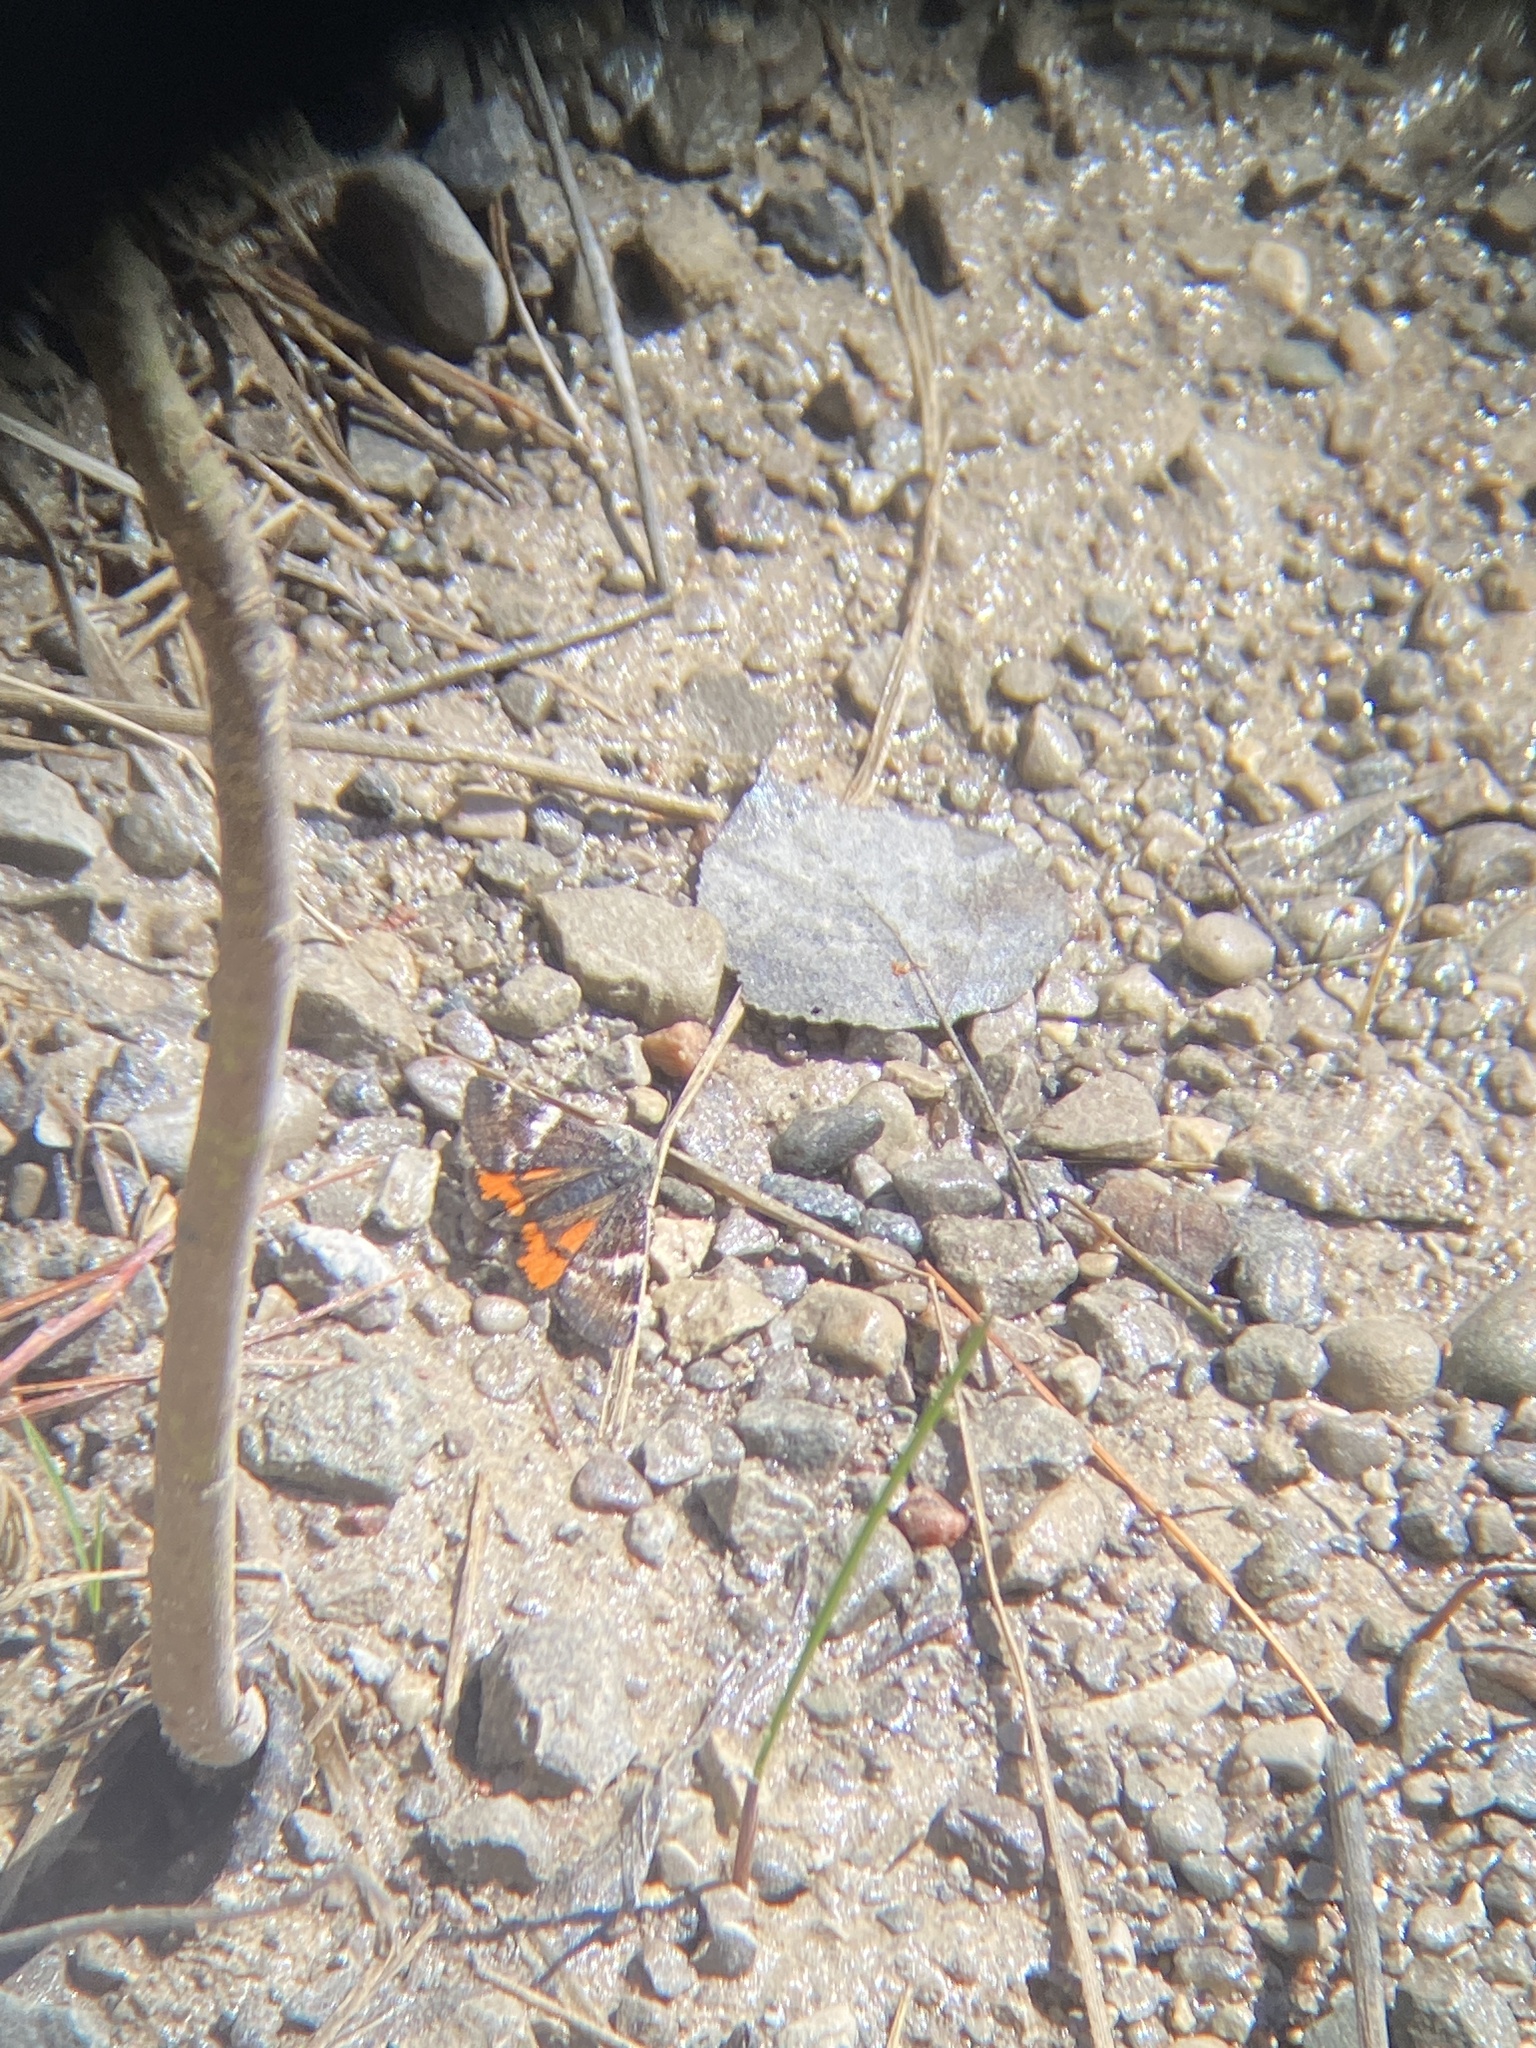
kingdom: Animalia
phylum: Arthropoda
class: Insecta
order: Lepidoptera
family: Geometridae
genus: Archiearis
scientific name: Archiearis infans
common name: First born geometer
